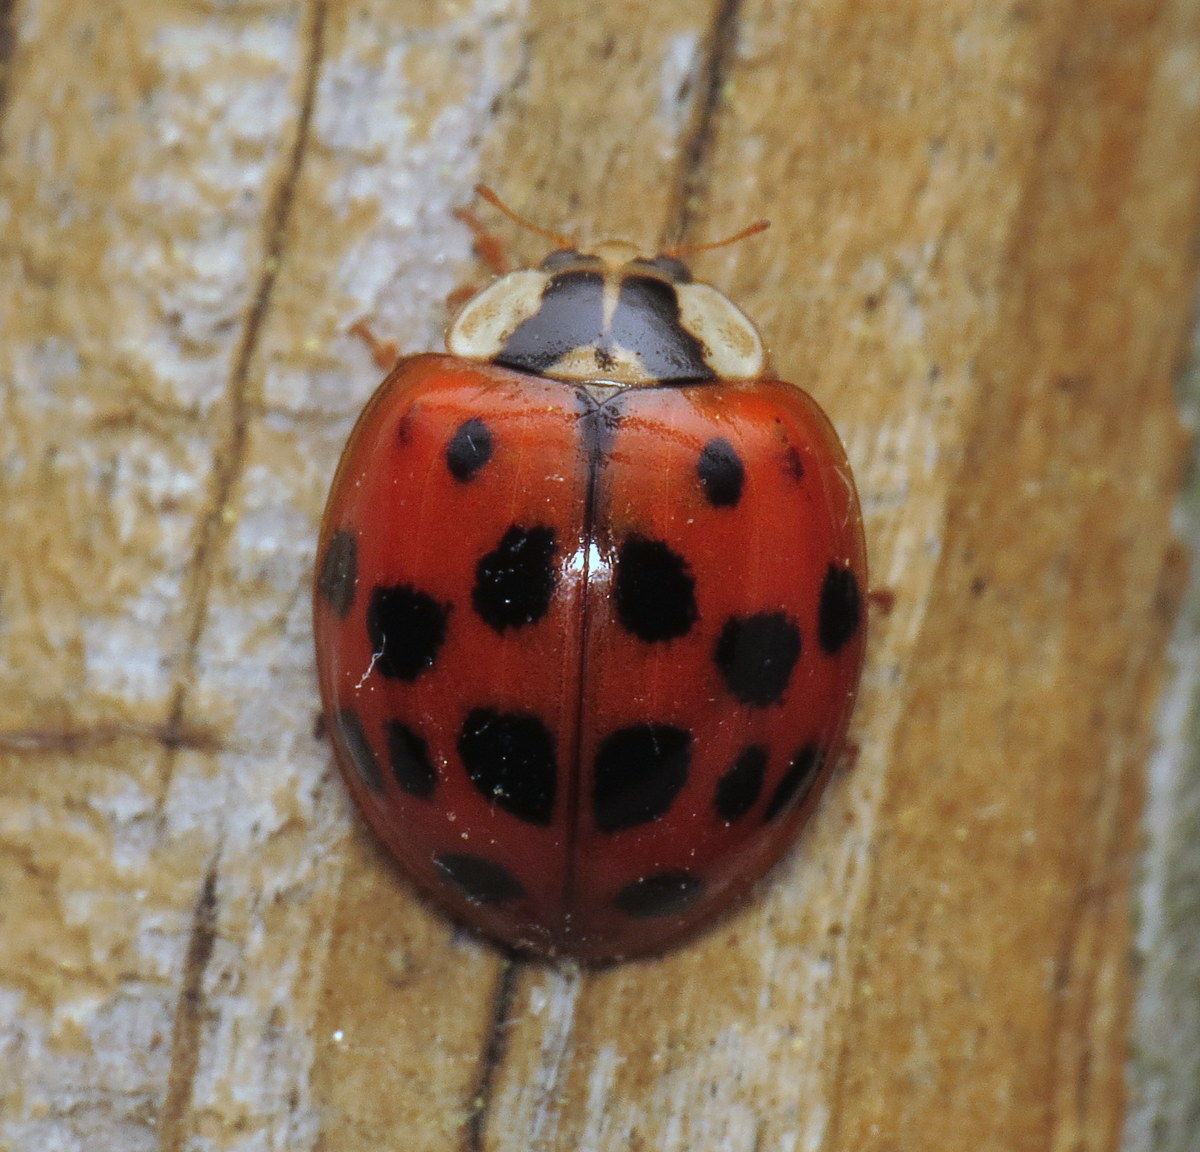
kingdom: Animalia
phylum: Arthropoda
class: Insecta
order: Coleoptera
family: Coccinellidae
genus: Harmonia
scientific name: Harmonia axyridis
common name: Harlequin ladybird
